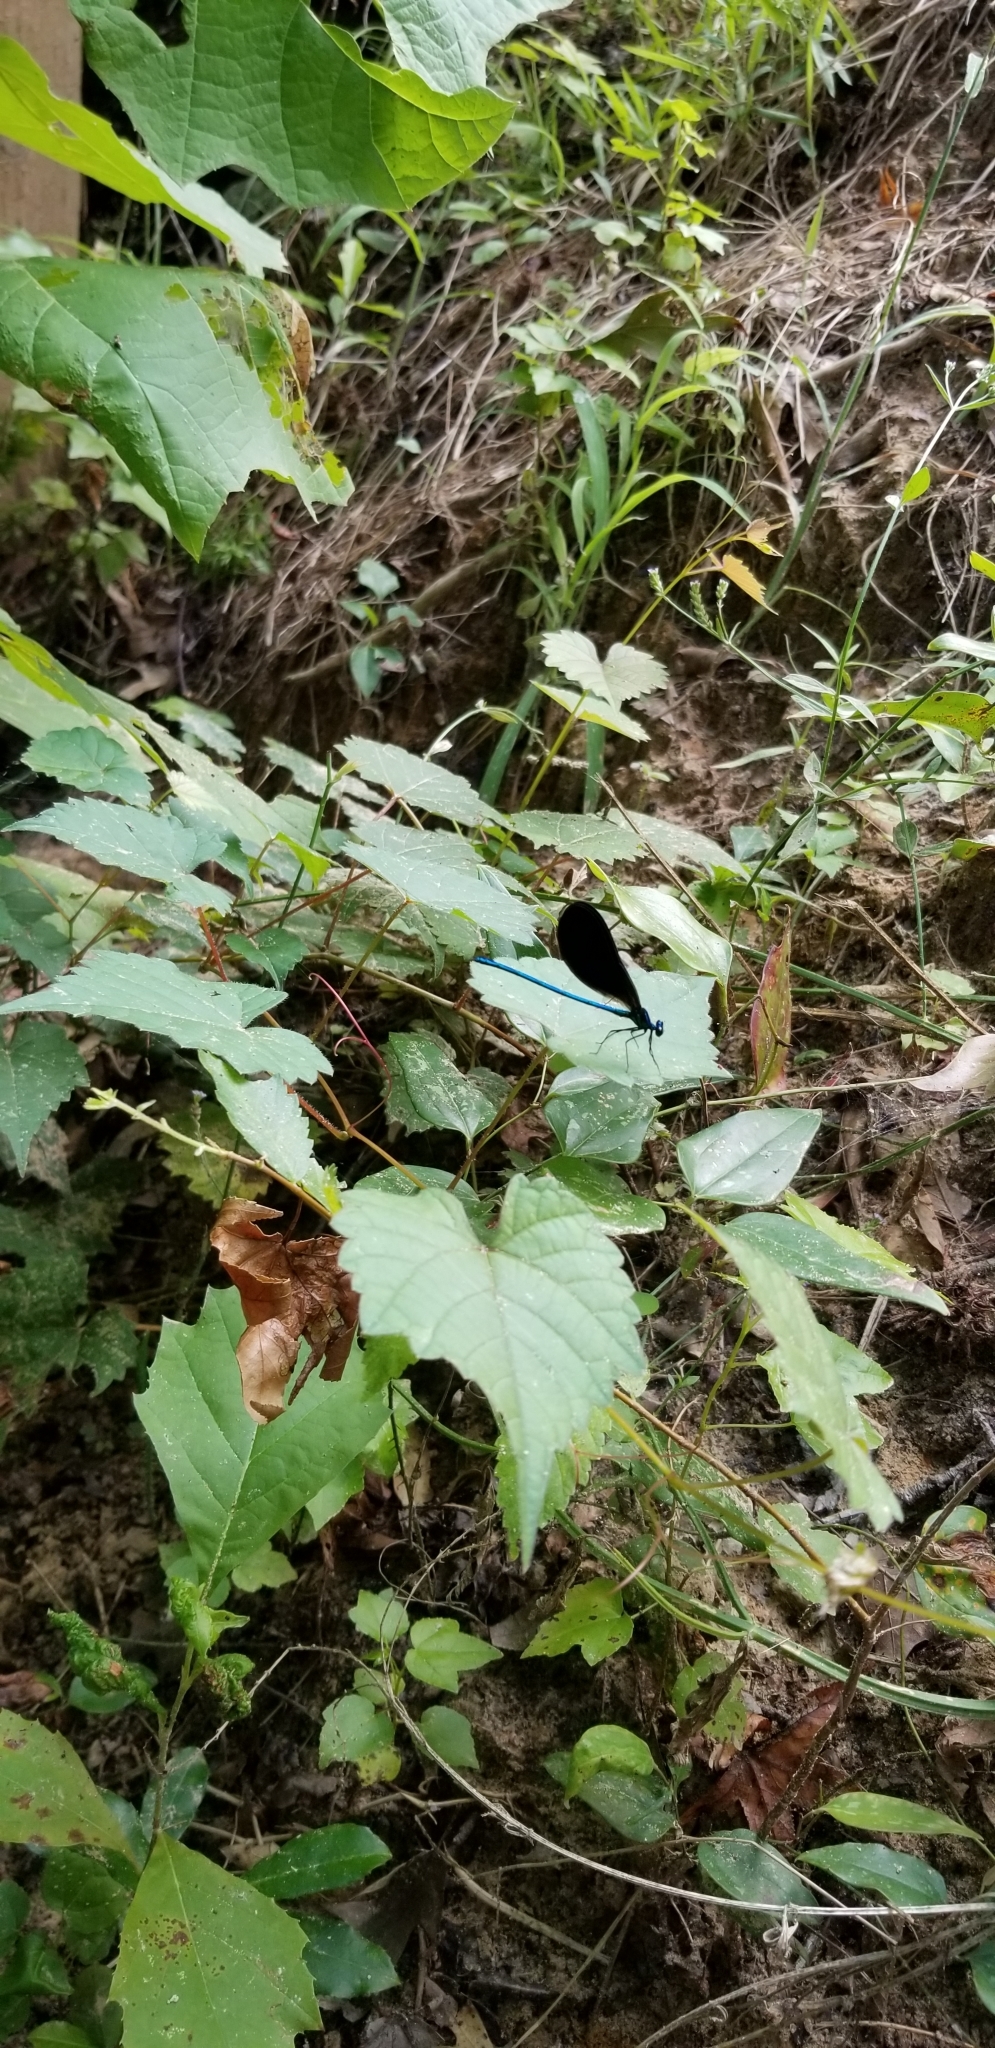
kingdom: Animalia
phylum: Arthropoda
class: Insecta
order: Odonata
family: Calopterygidae
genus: Calopteryx
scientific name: Calopteryx maculata
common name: Ebony jewelwing
